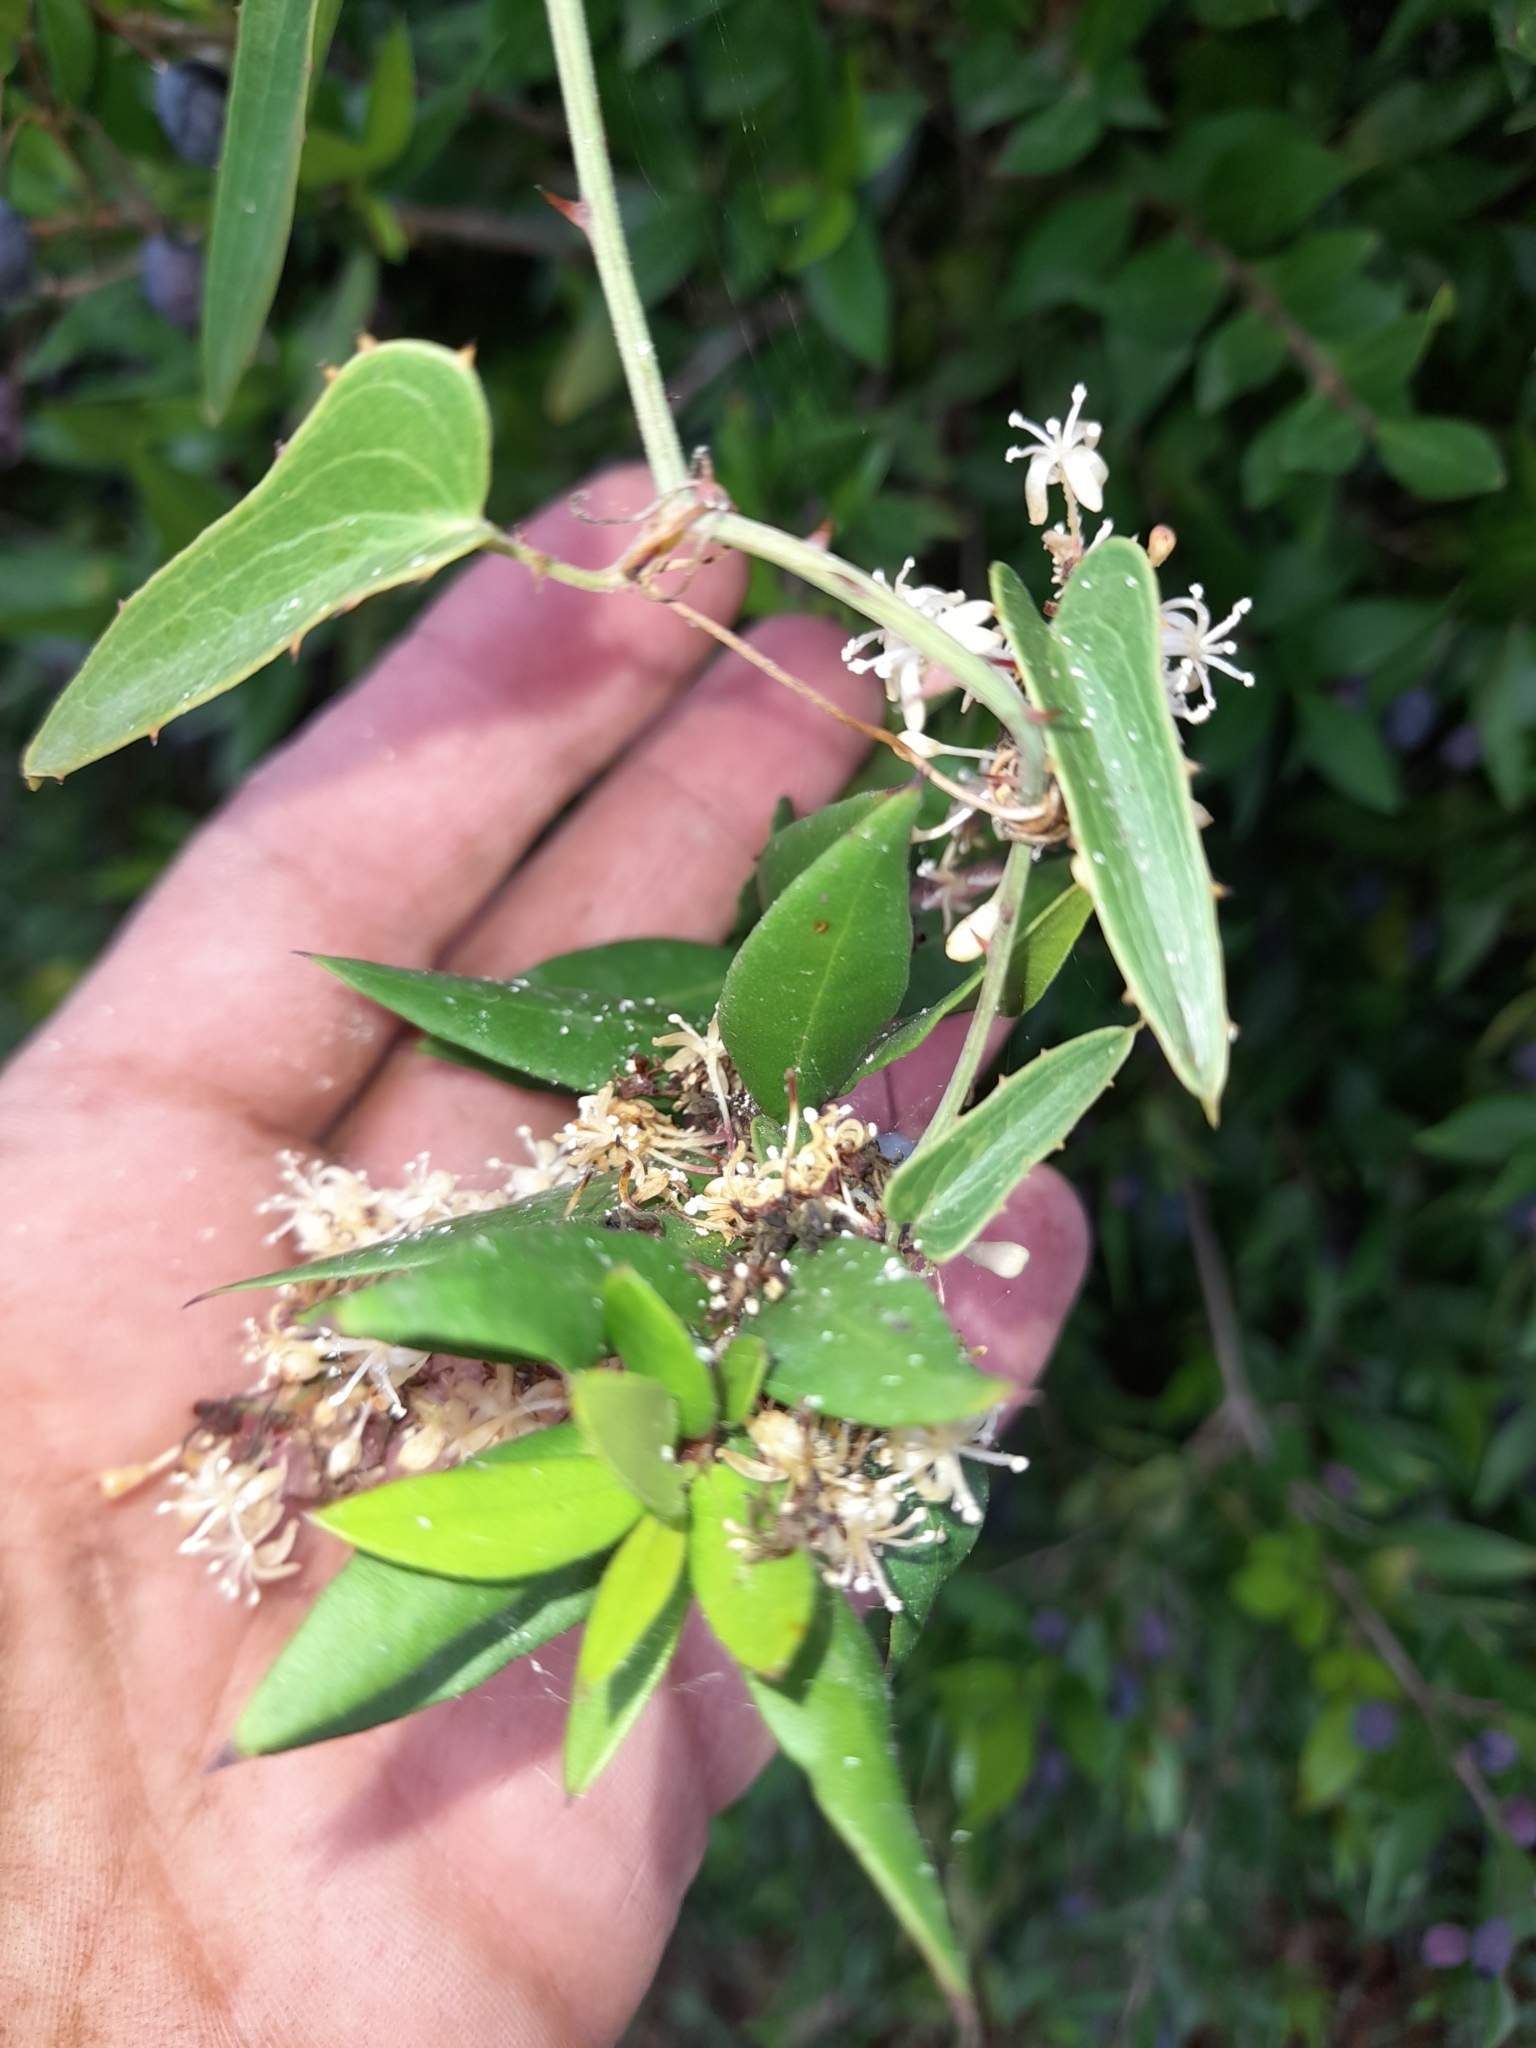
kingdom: Plantae
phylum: Tracheophyta
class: Liliopsida
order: Liliales
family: Smilacaceae
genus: Smilax
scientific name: Smilax aspera
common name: Common smilax
